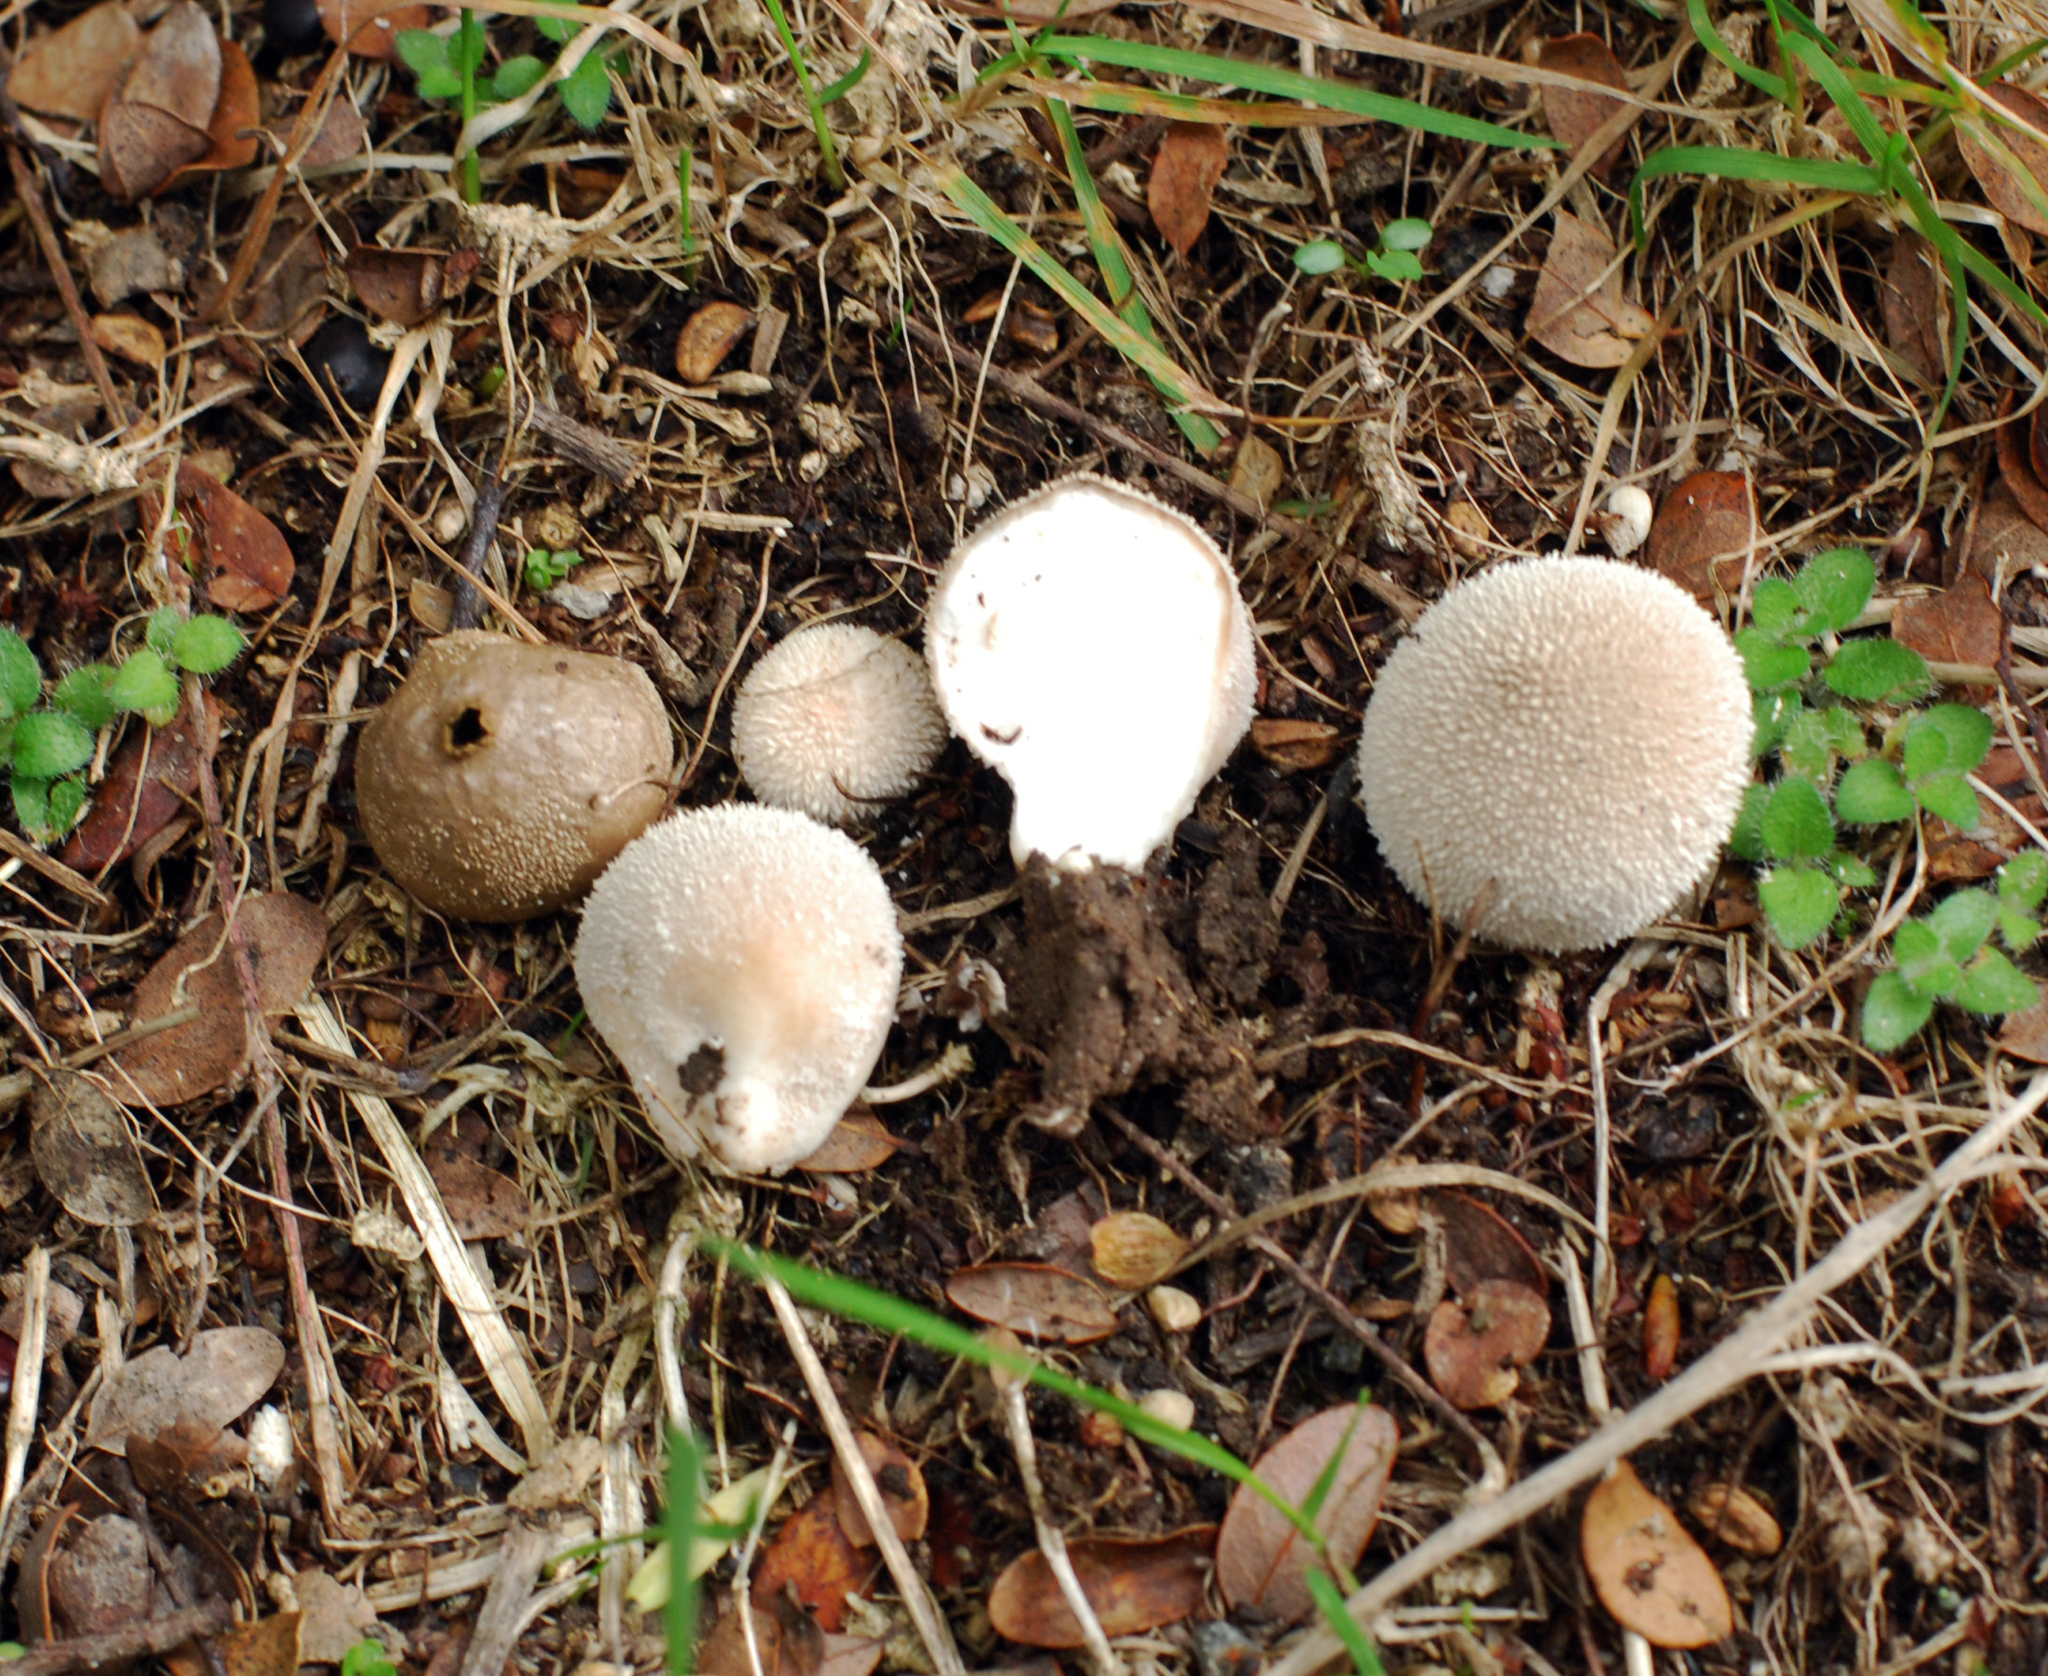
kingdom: Fungi
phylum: Basidiomycota
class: Agaricomycetes
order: Agaricales
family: Lycoperdaceae
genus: Lycoperdon
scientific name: Lycoperdon glabrescens
